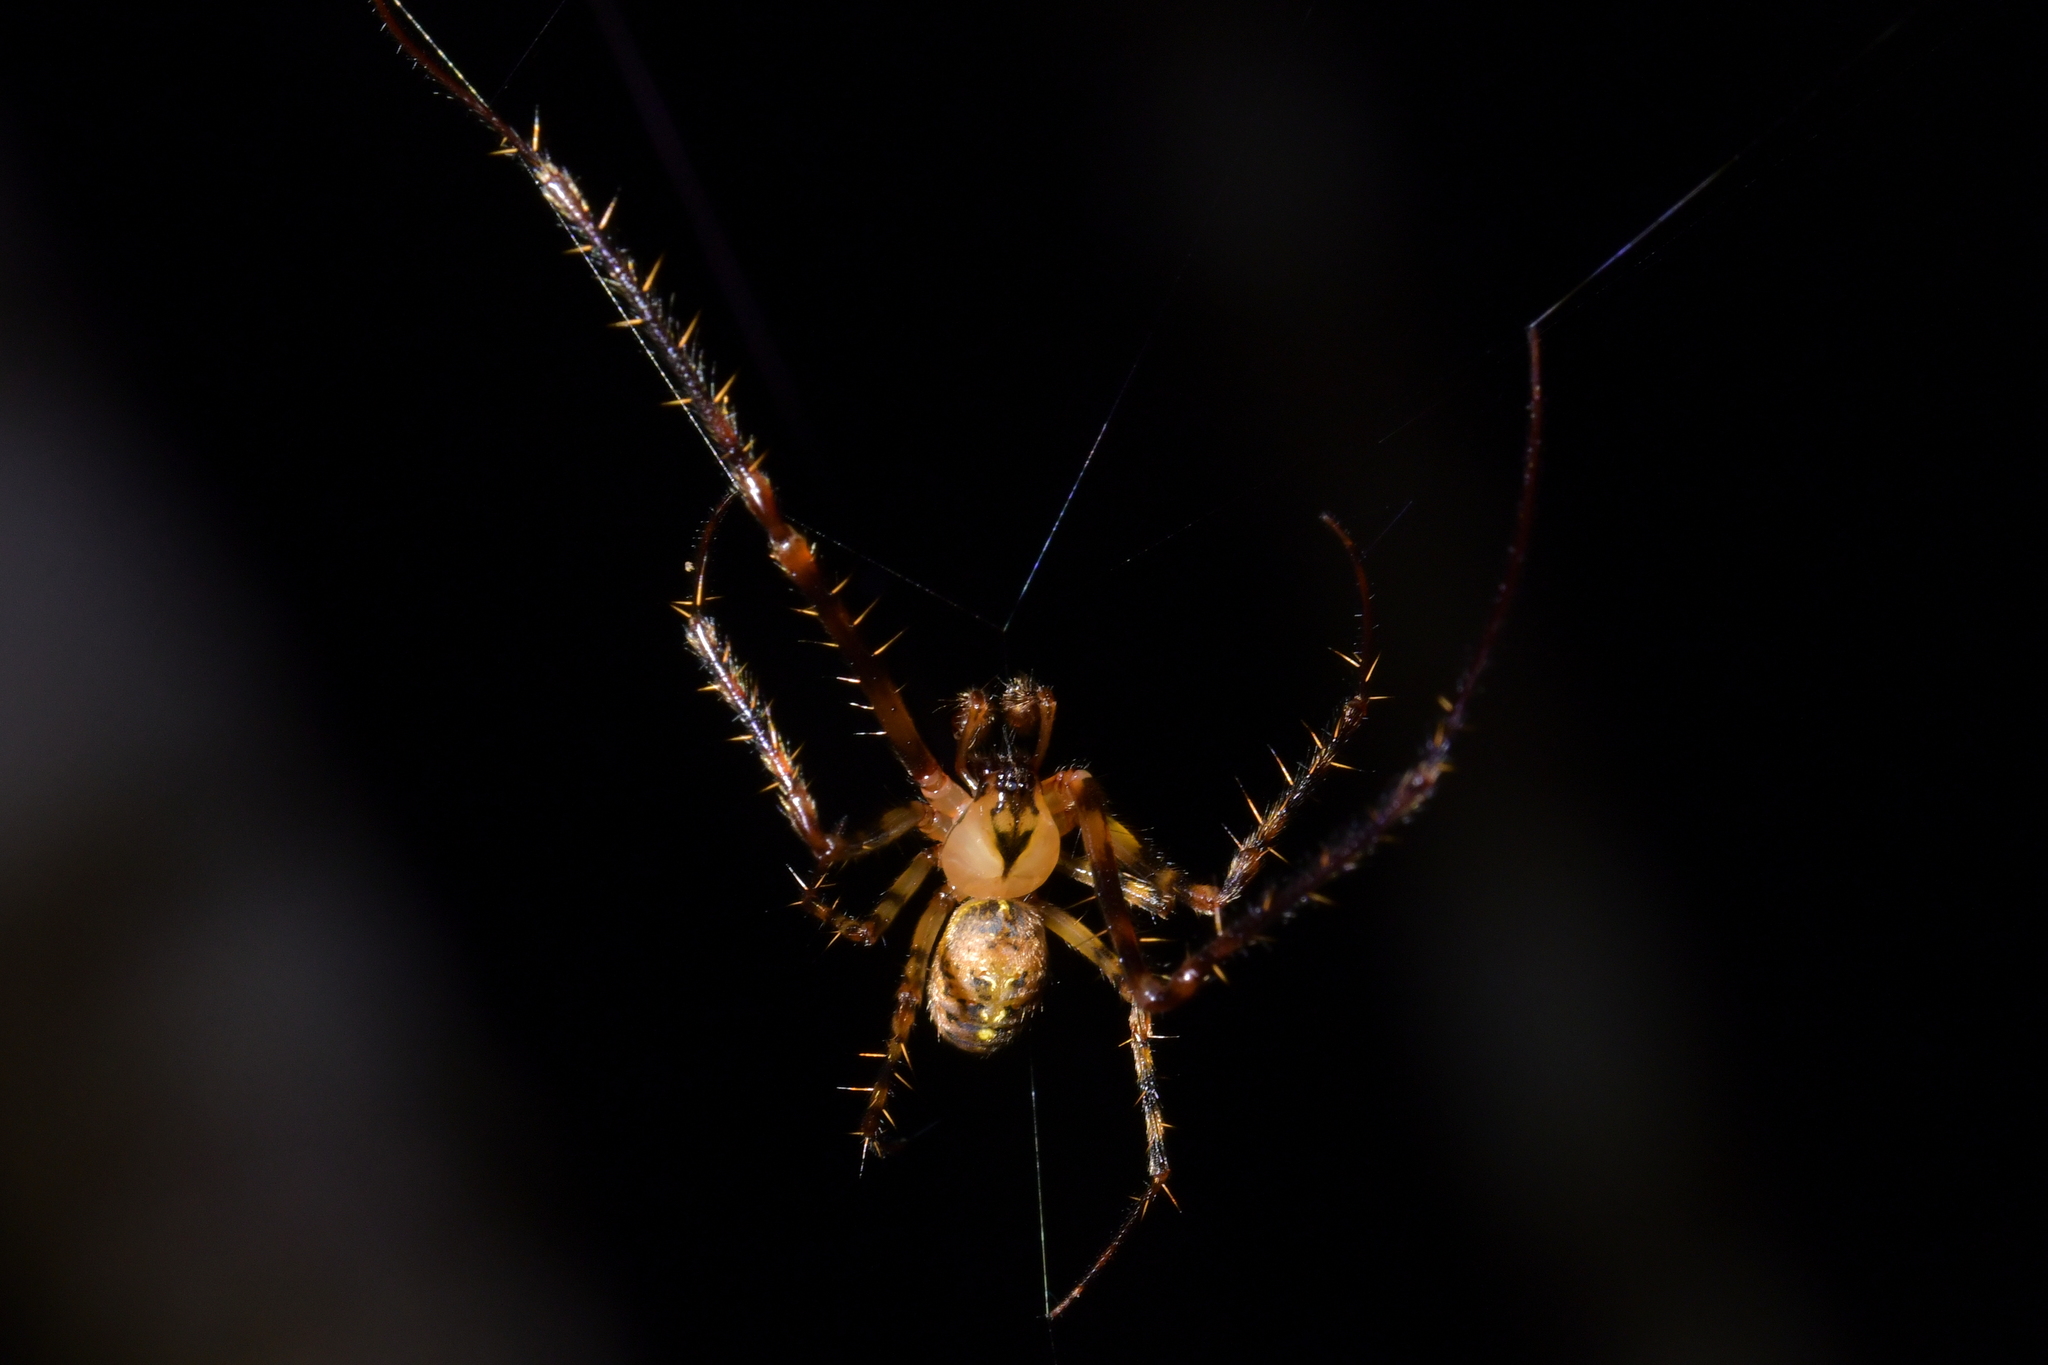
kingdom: Animalia
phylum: Arthropoda
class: Arachnida
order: Araneae
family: Tetragnathidae
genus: Tawhai
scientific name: Tawhai arborea
